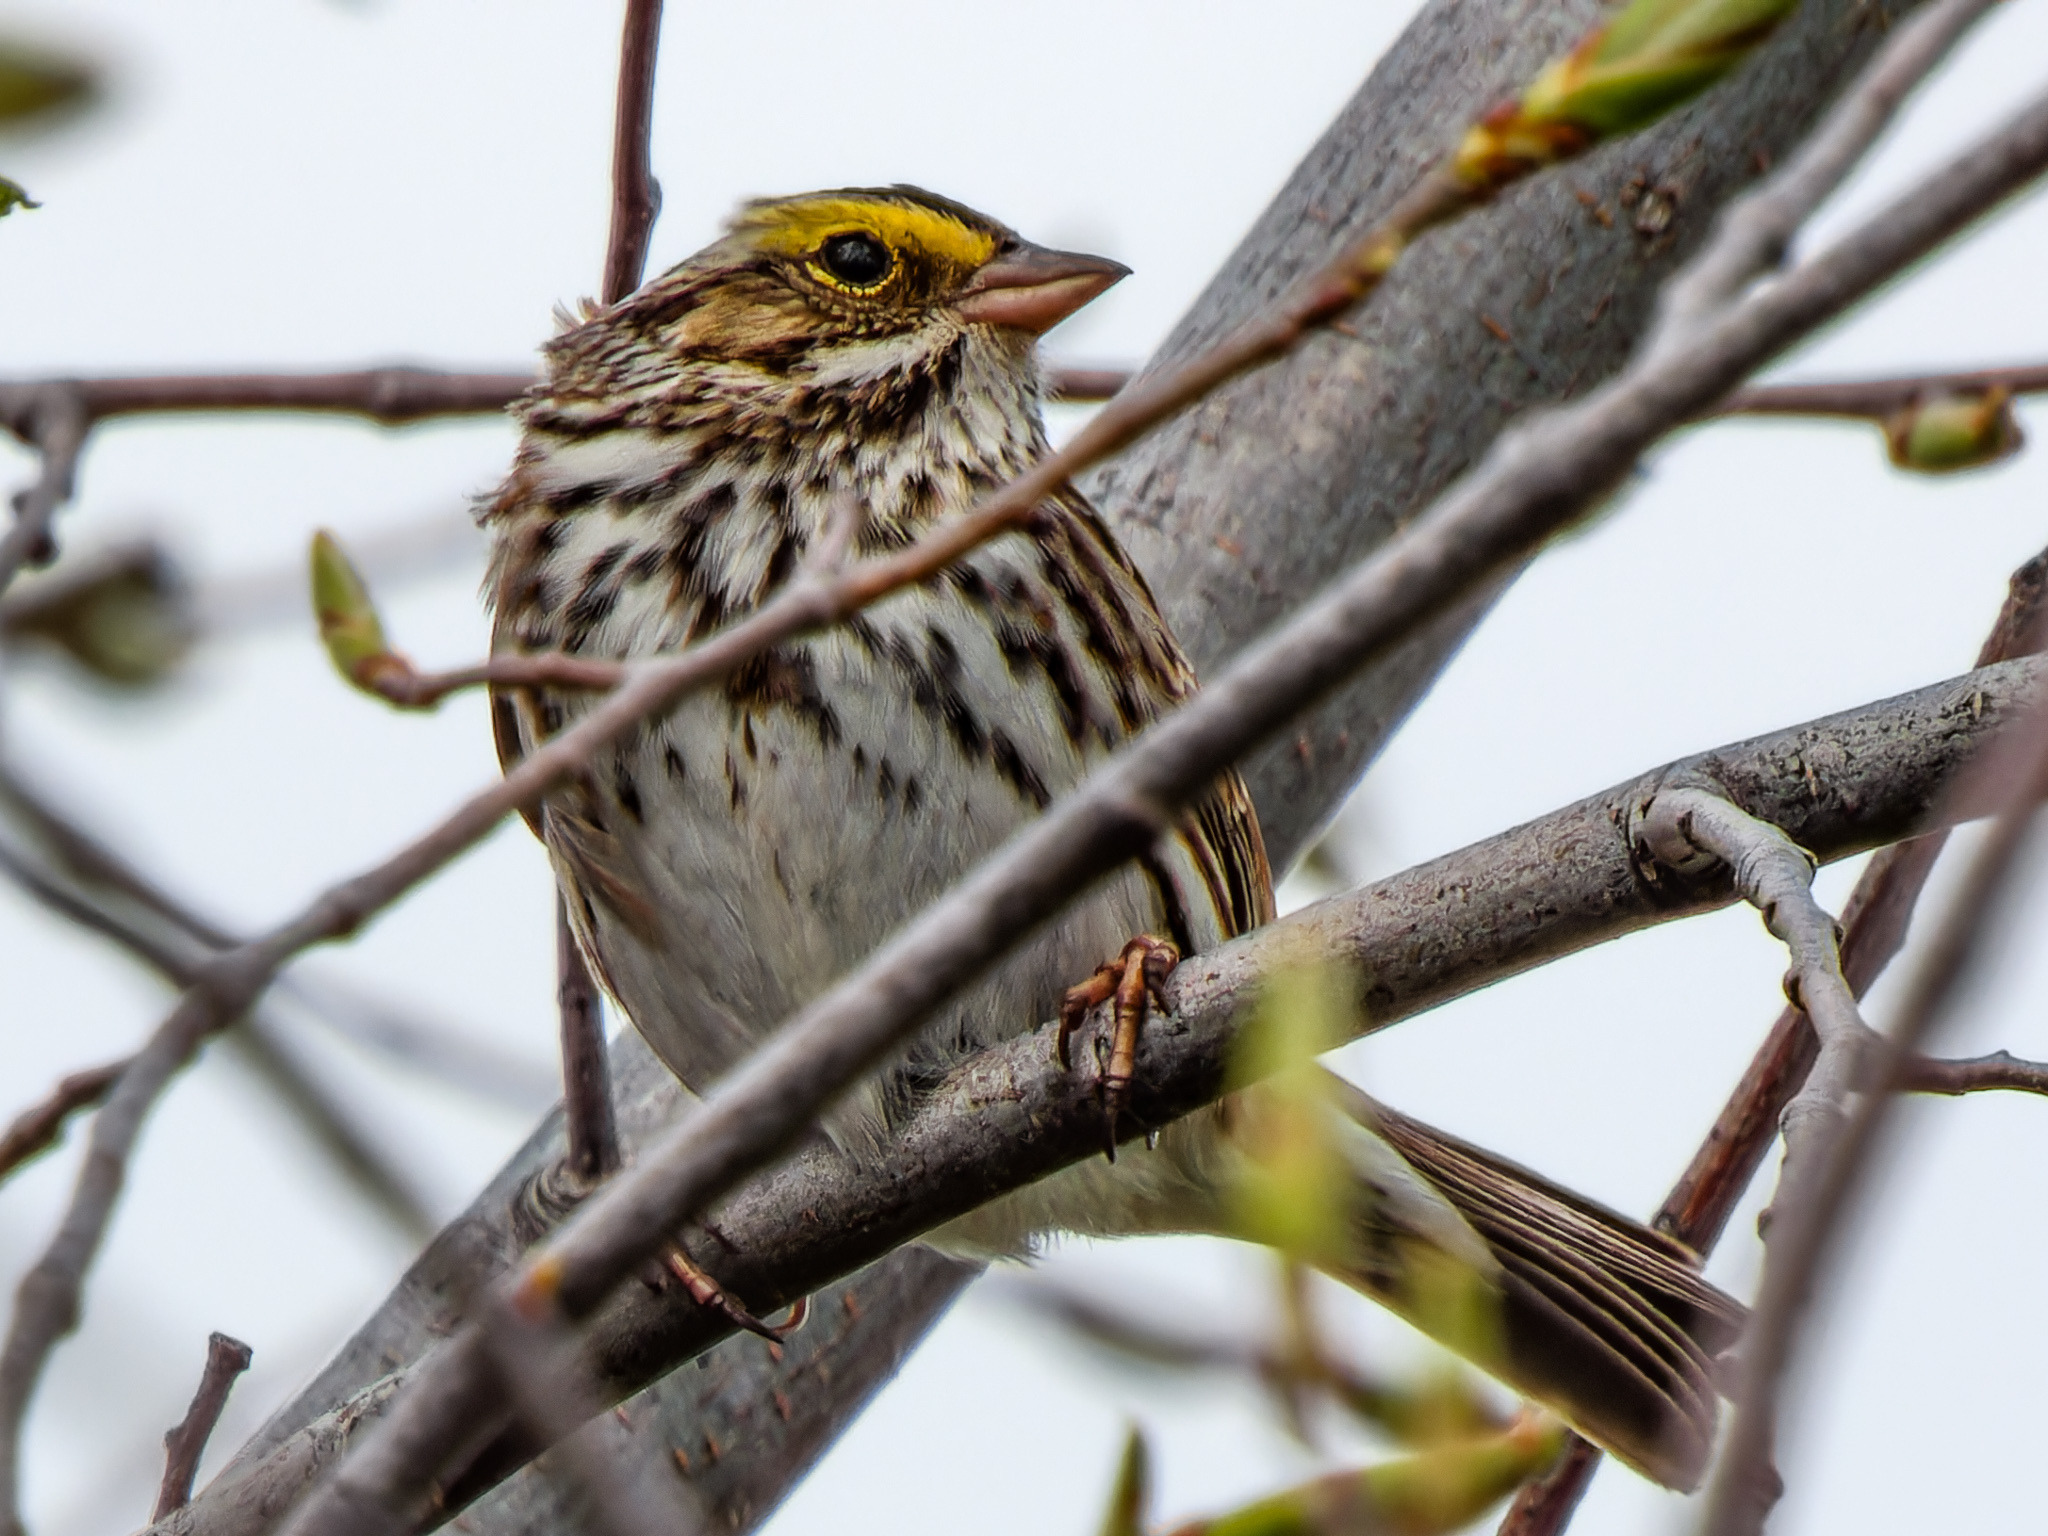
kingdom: Animalia
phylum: Chordata
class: Aves
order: Passeriformes
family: Passerellidae
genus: Passerculus
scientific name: Passerculus sandwichensis
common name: Savannah sparrow
